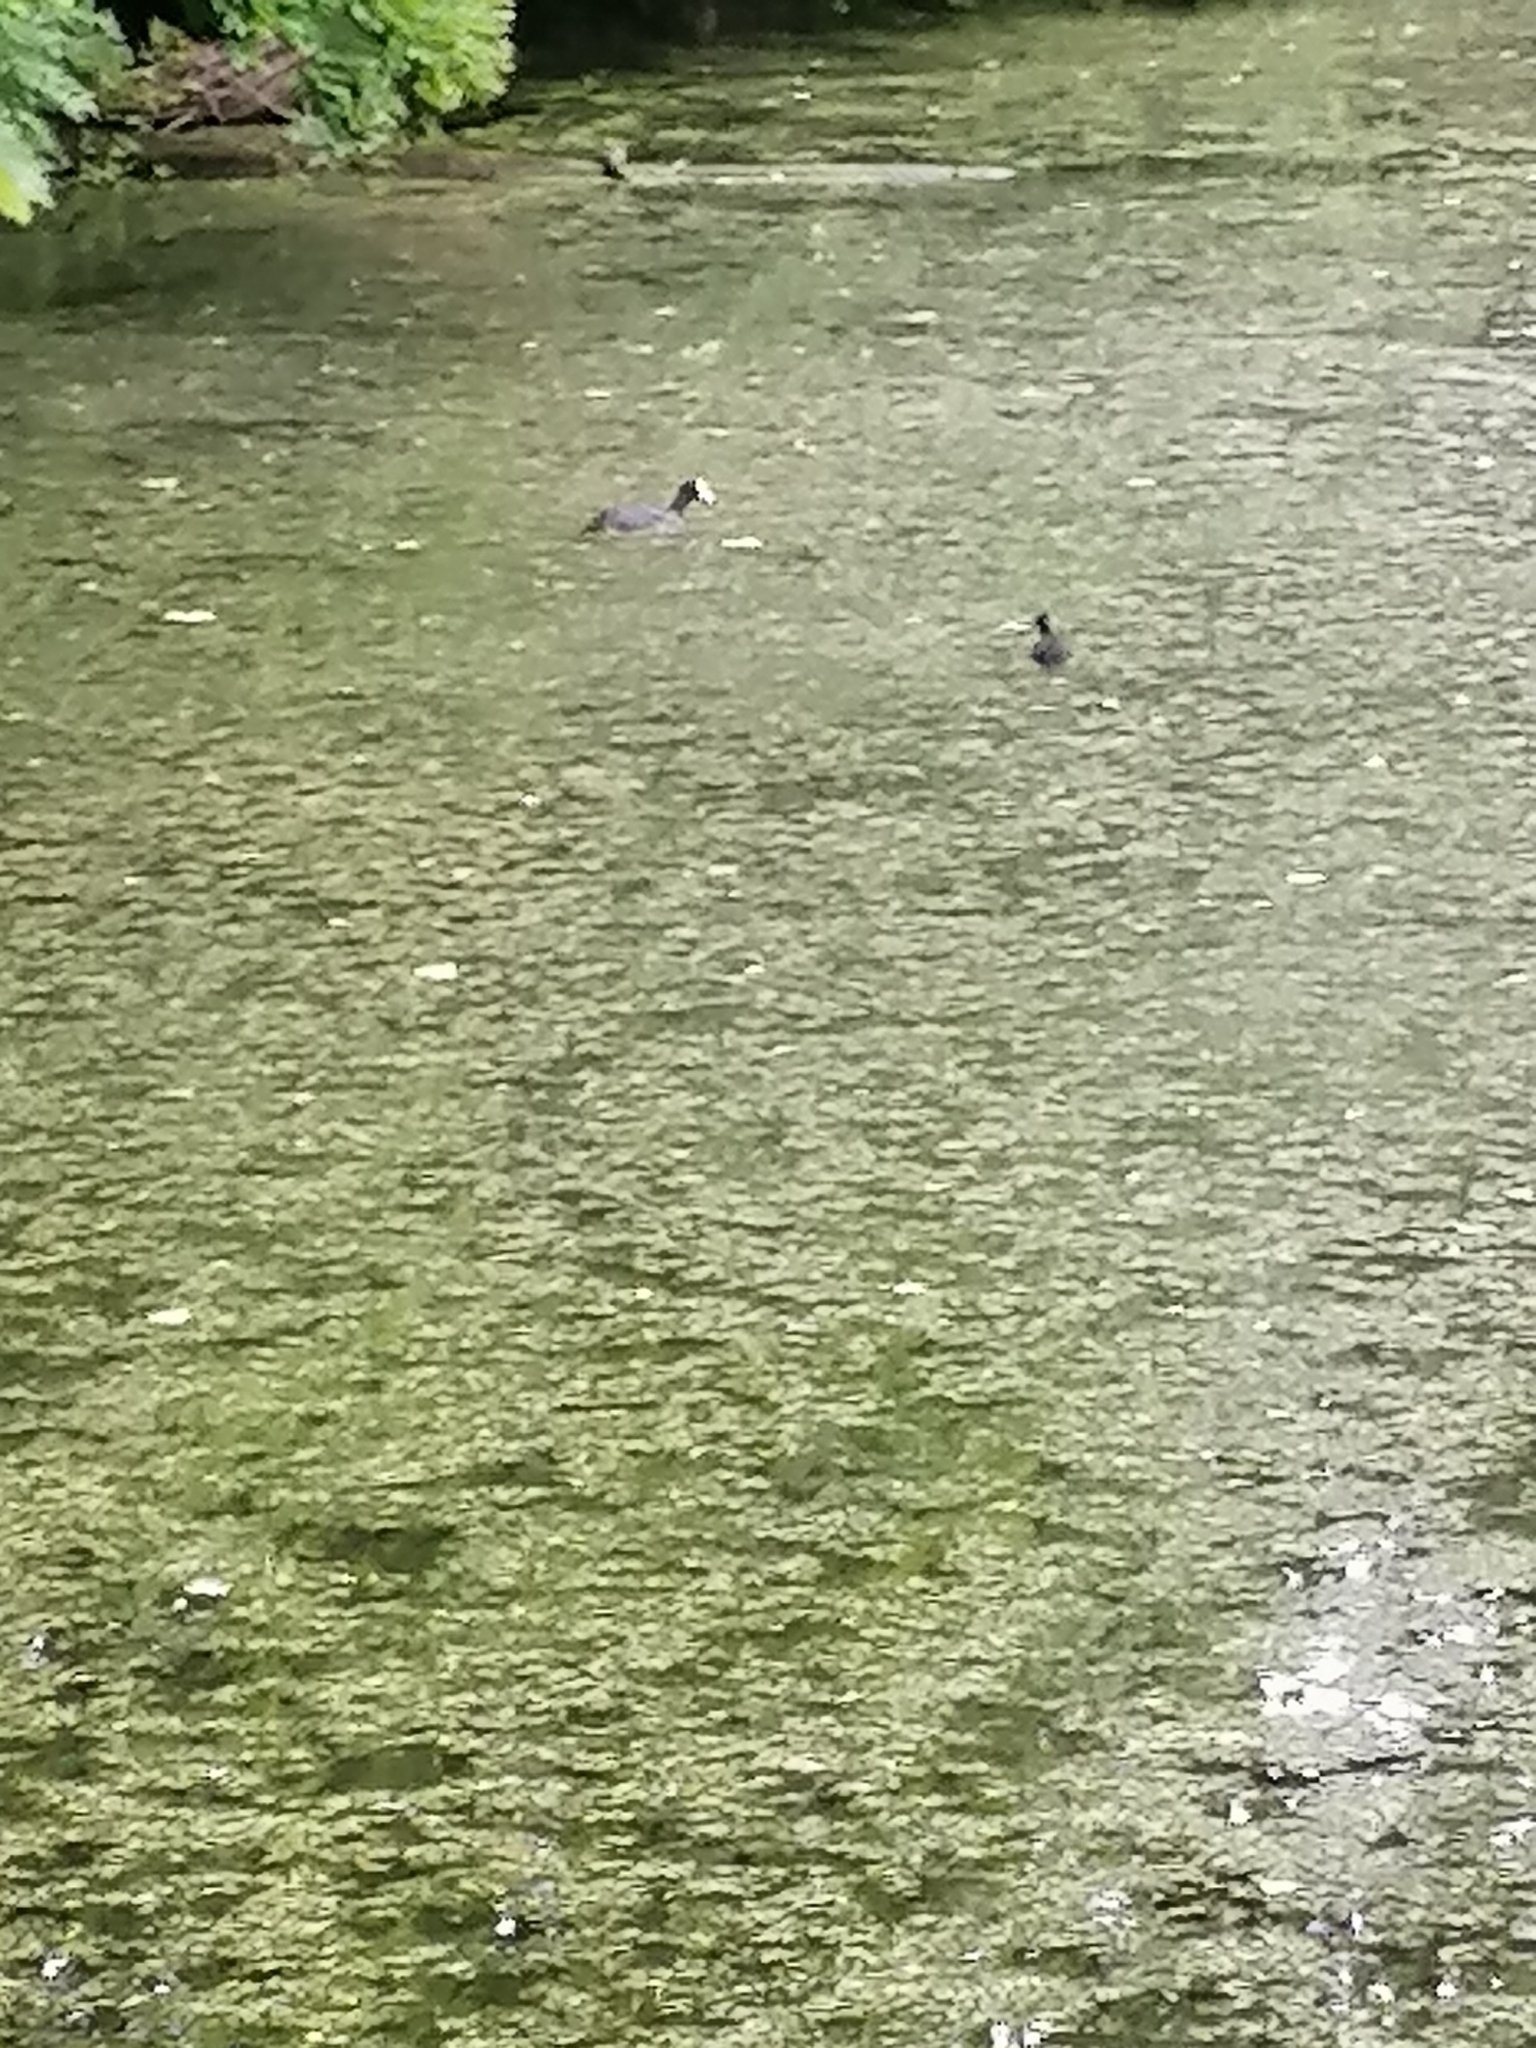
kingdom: Animalia
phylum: Chordata
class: Aves
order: Gruiformes
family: Rallidae
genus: Fulica
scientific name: Fulica atra
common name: Eurasian coot
